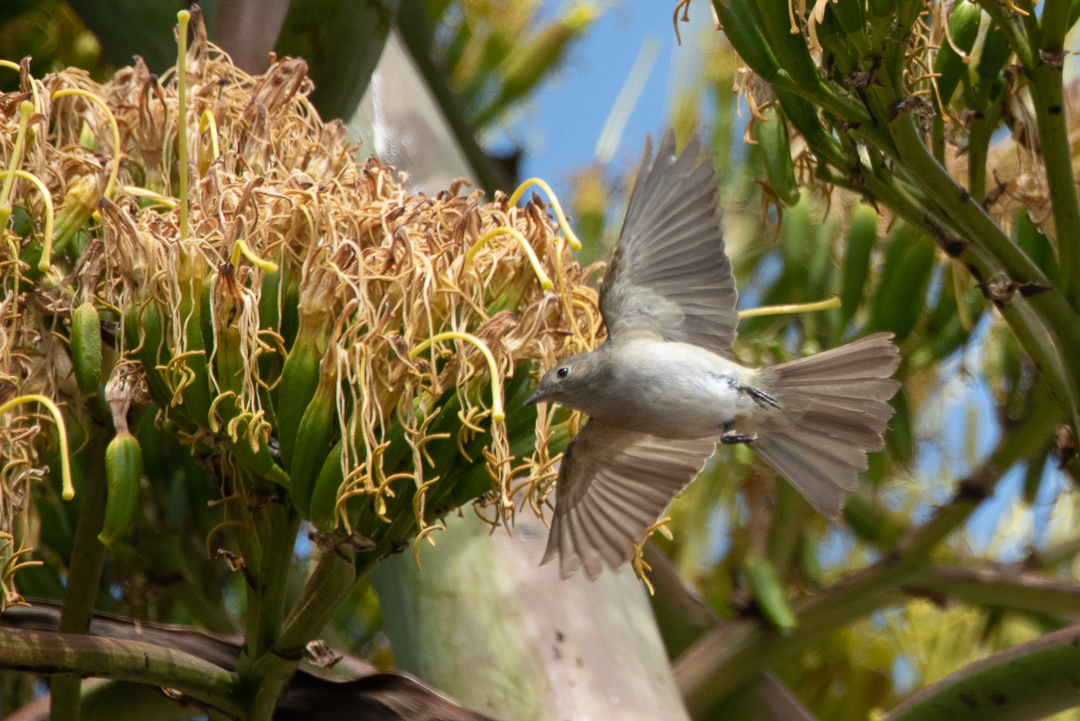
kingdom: Animalia
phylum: Chordata
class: Aves
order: Passeriformes
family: Tyrannidae
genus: Elaenia
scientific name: Elaenia albiceps
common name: White-crested elaenia
